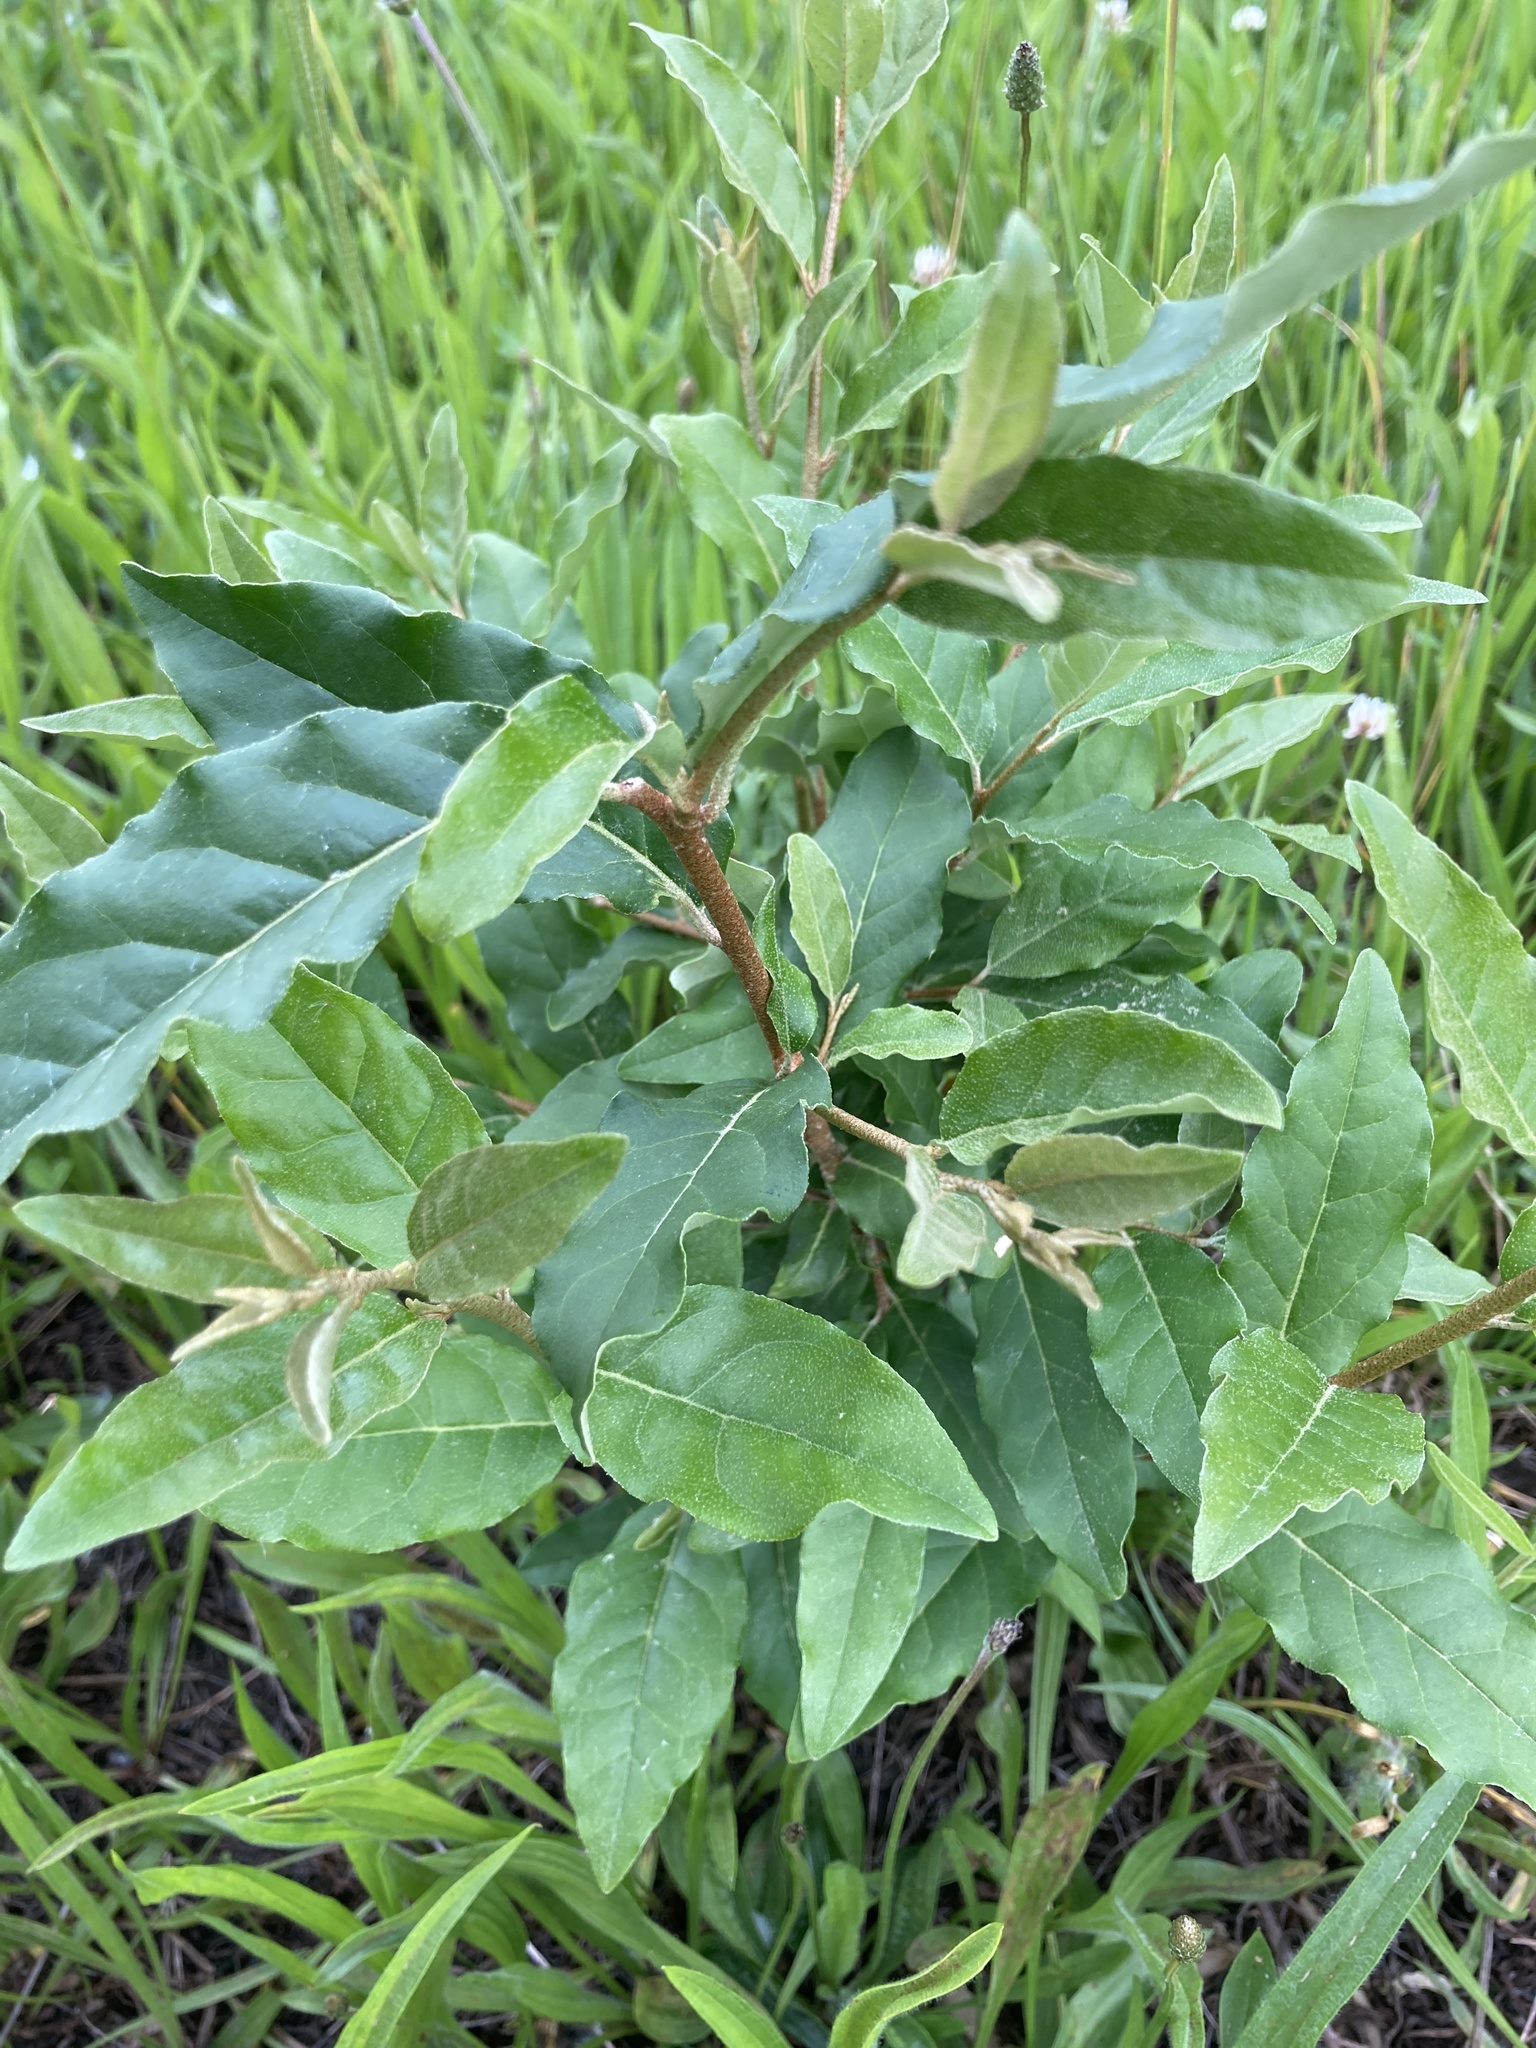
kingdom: Plantae
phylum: Tracheophyta
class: Magnoliopsida
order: Rosales
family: Elaeagnaceae
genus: Elaeagnus
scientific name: Elaeagnus umbellata
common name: Autumn olive
